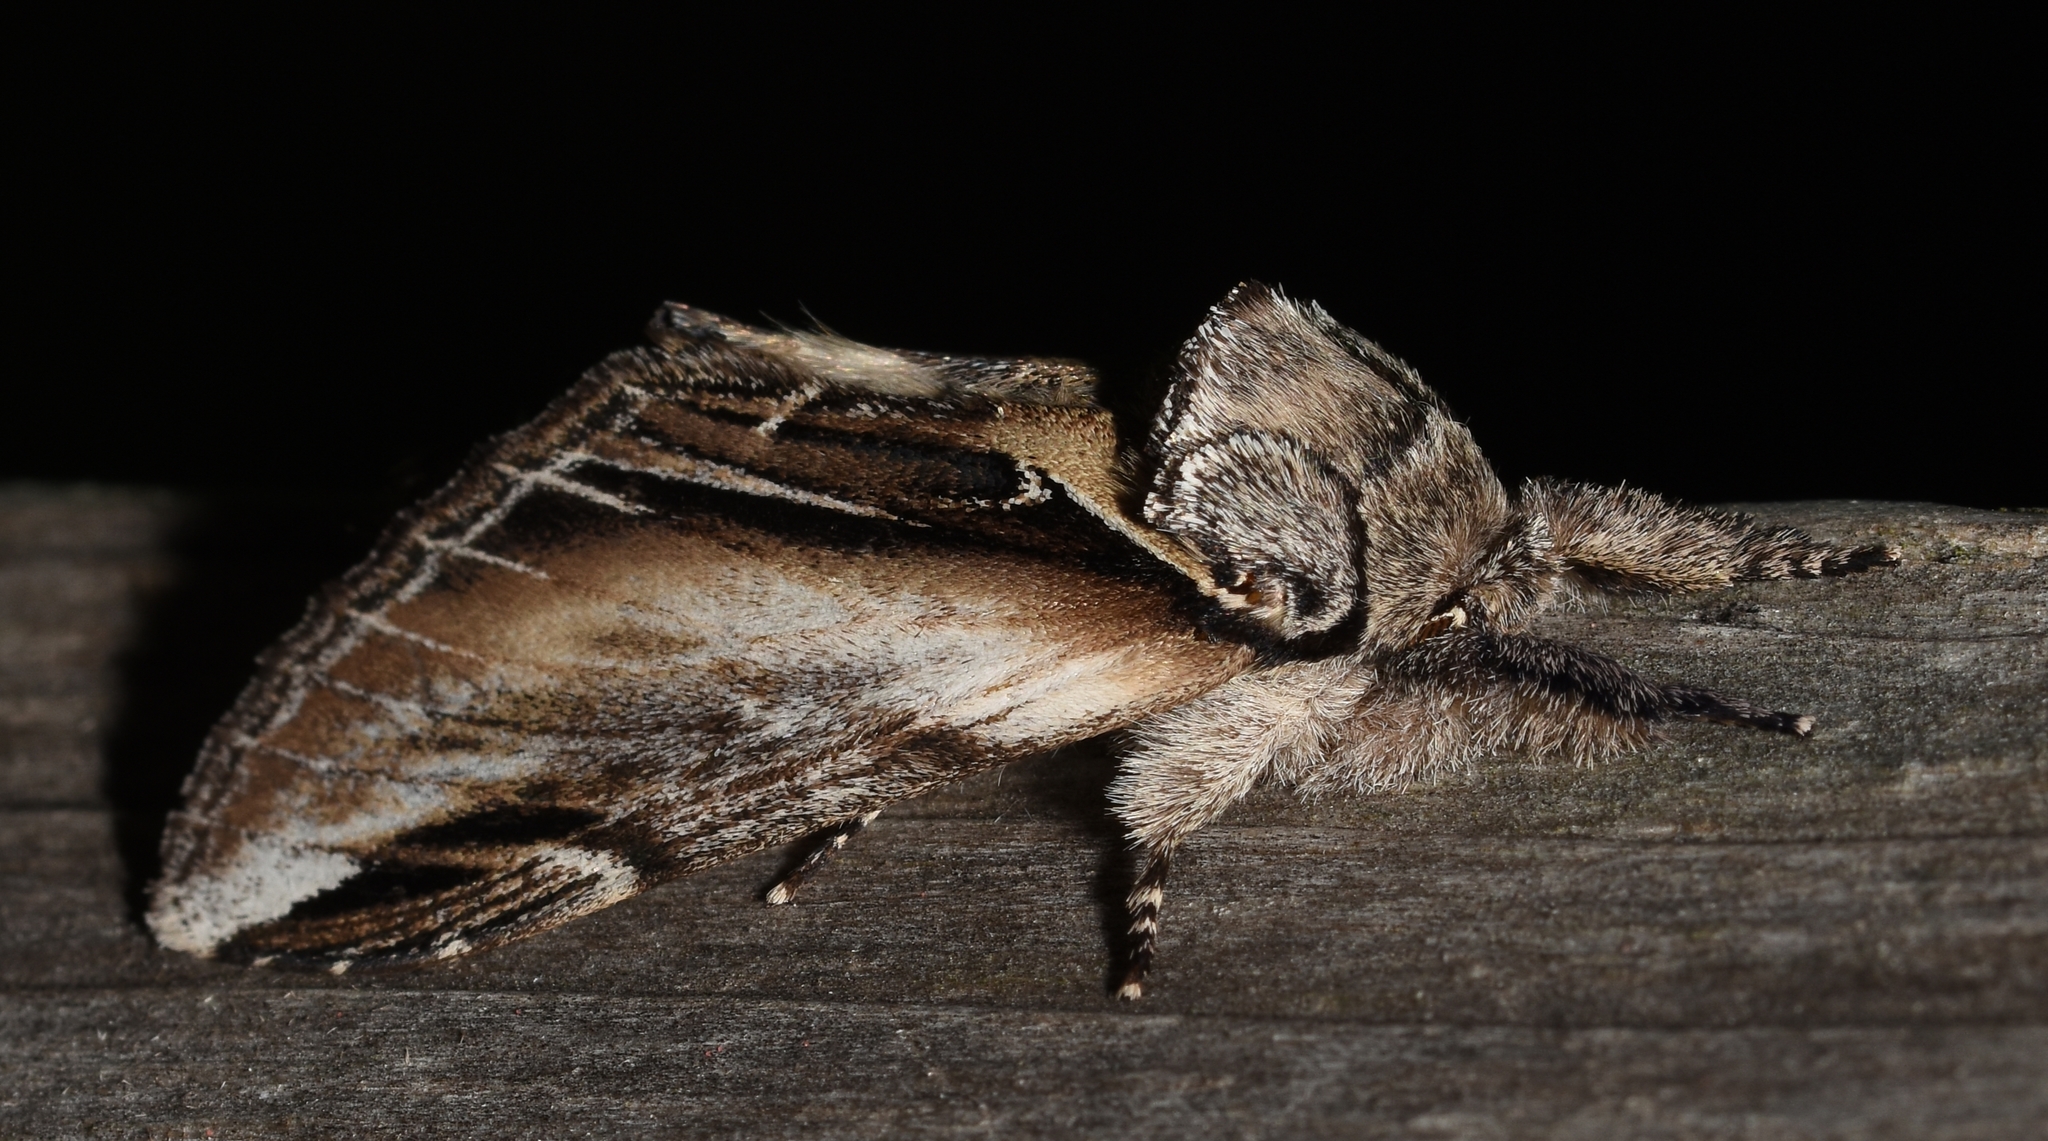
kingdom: Animalia
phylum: Arthropoda
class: Insecta
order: Lepidoptera
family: Notodontidae
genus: Pheosia
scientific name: Pheosia rimosa
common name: Black-rimmed prominent
